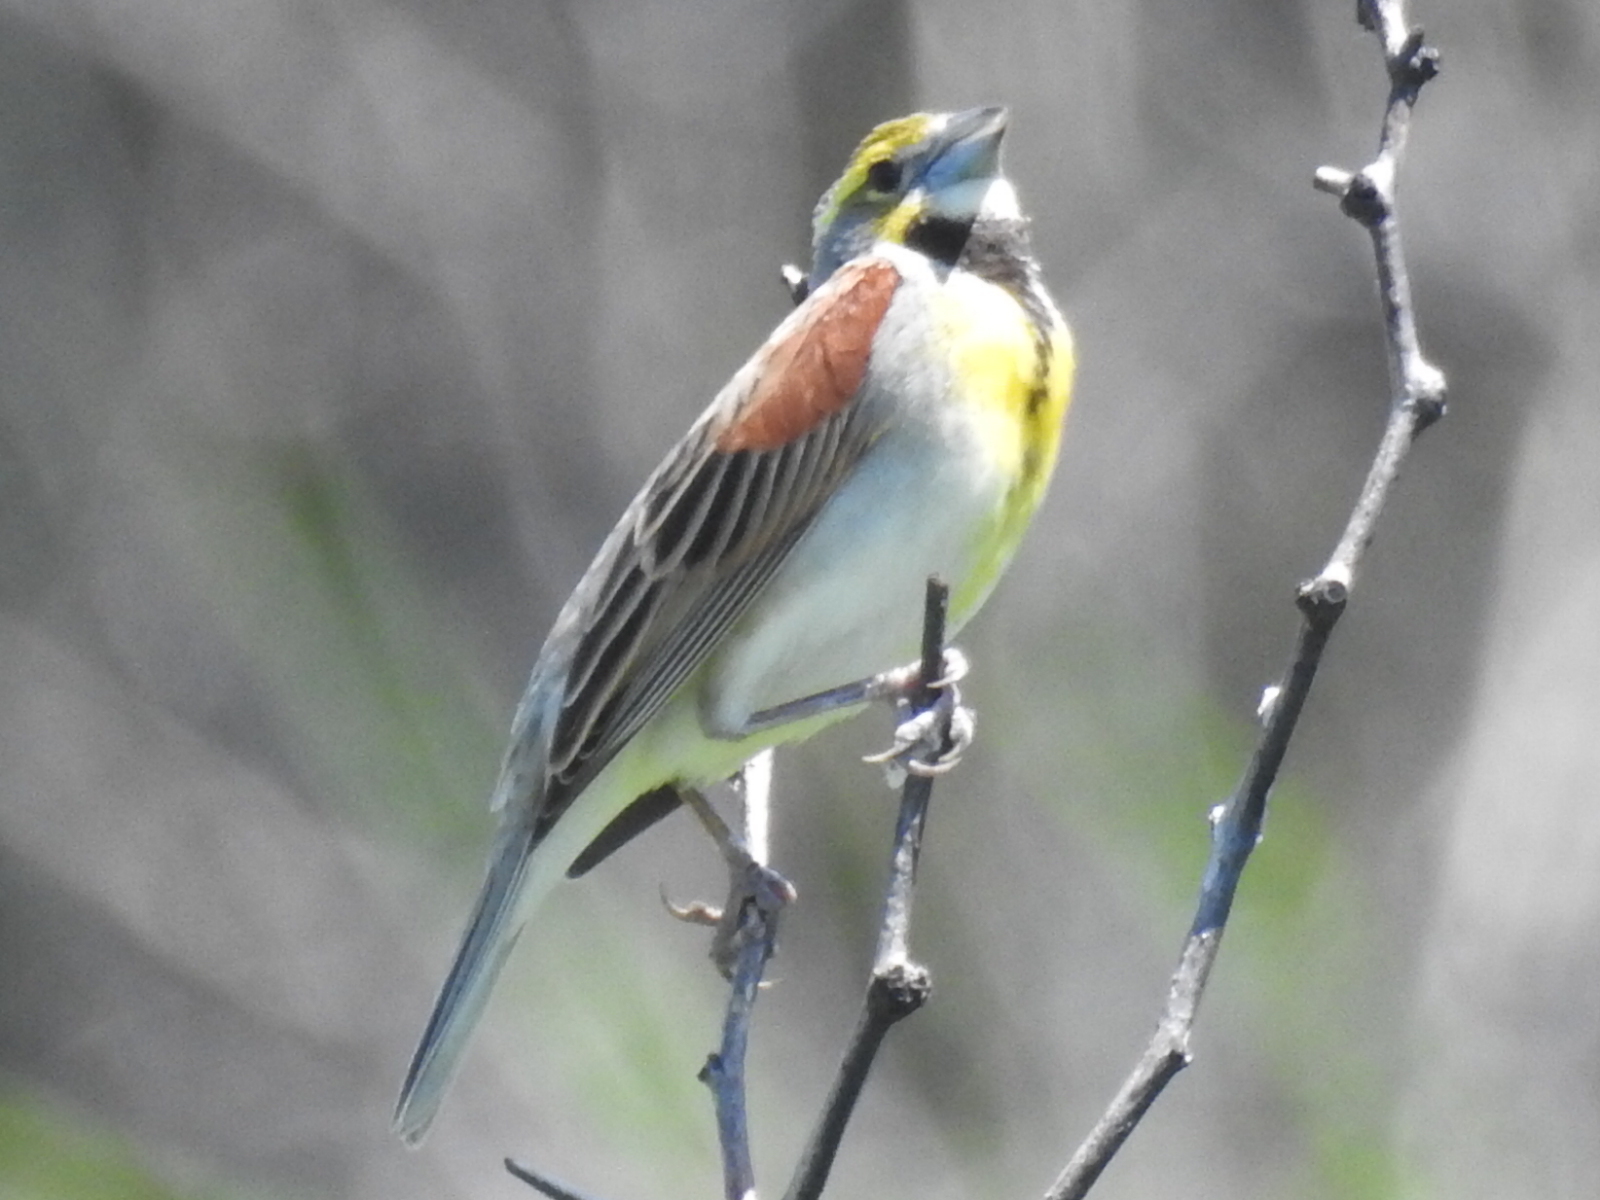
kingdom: Animalia
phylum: Chordata
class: Aves
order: Passeriformes
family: Cardinalidae
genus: Spiza
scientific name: Spiza americana
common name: Dickcissel
